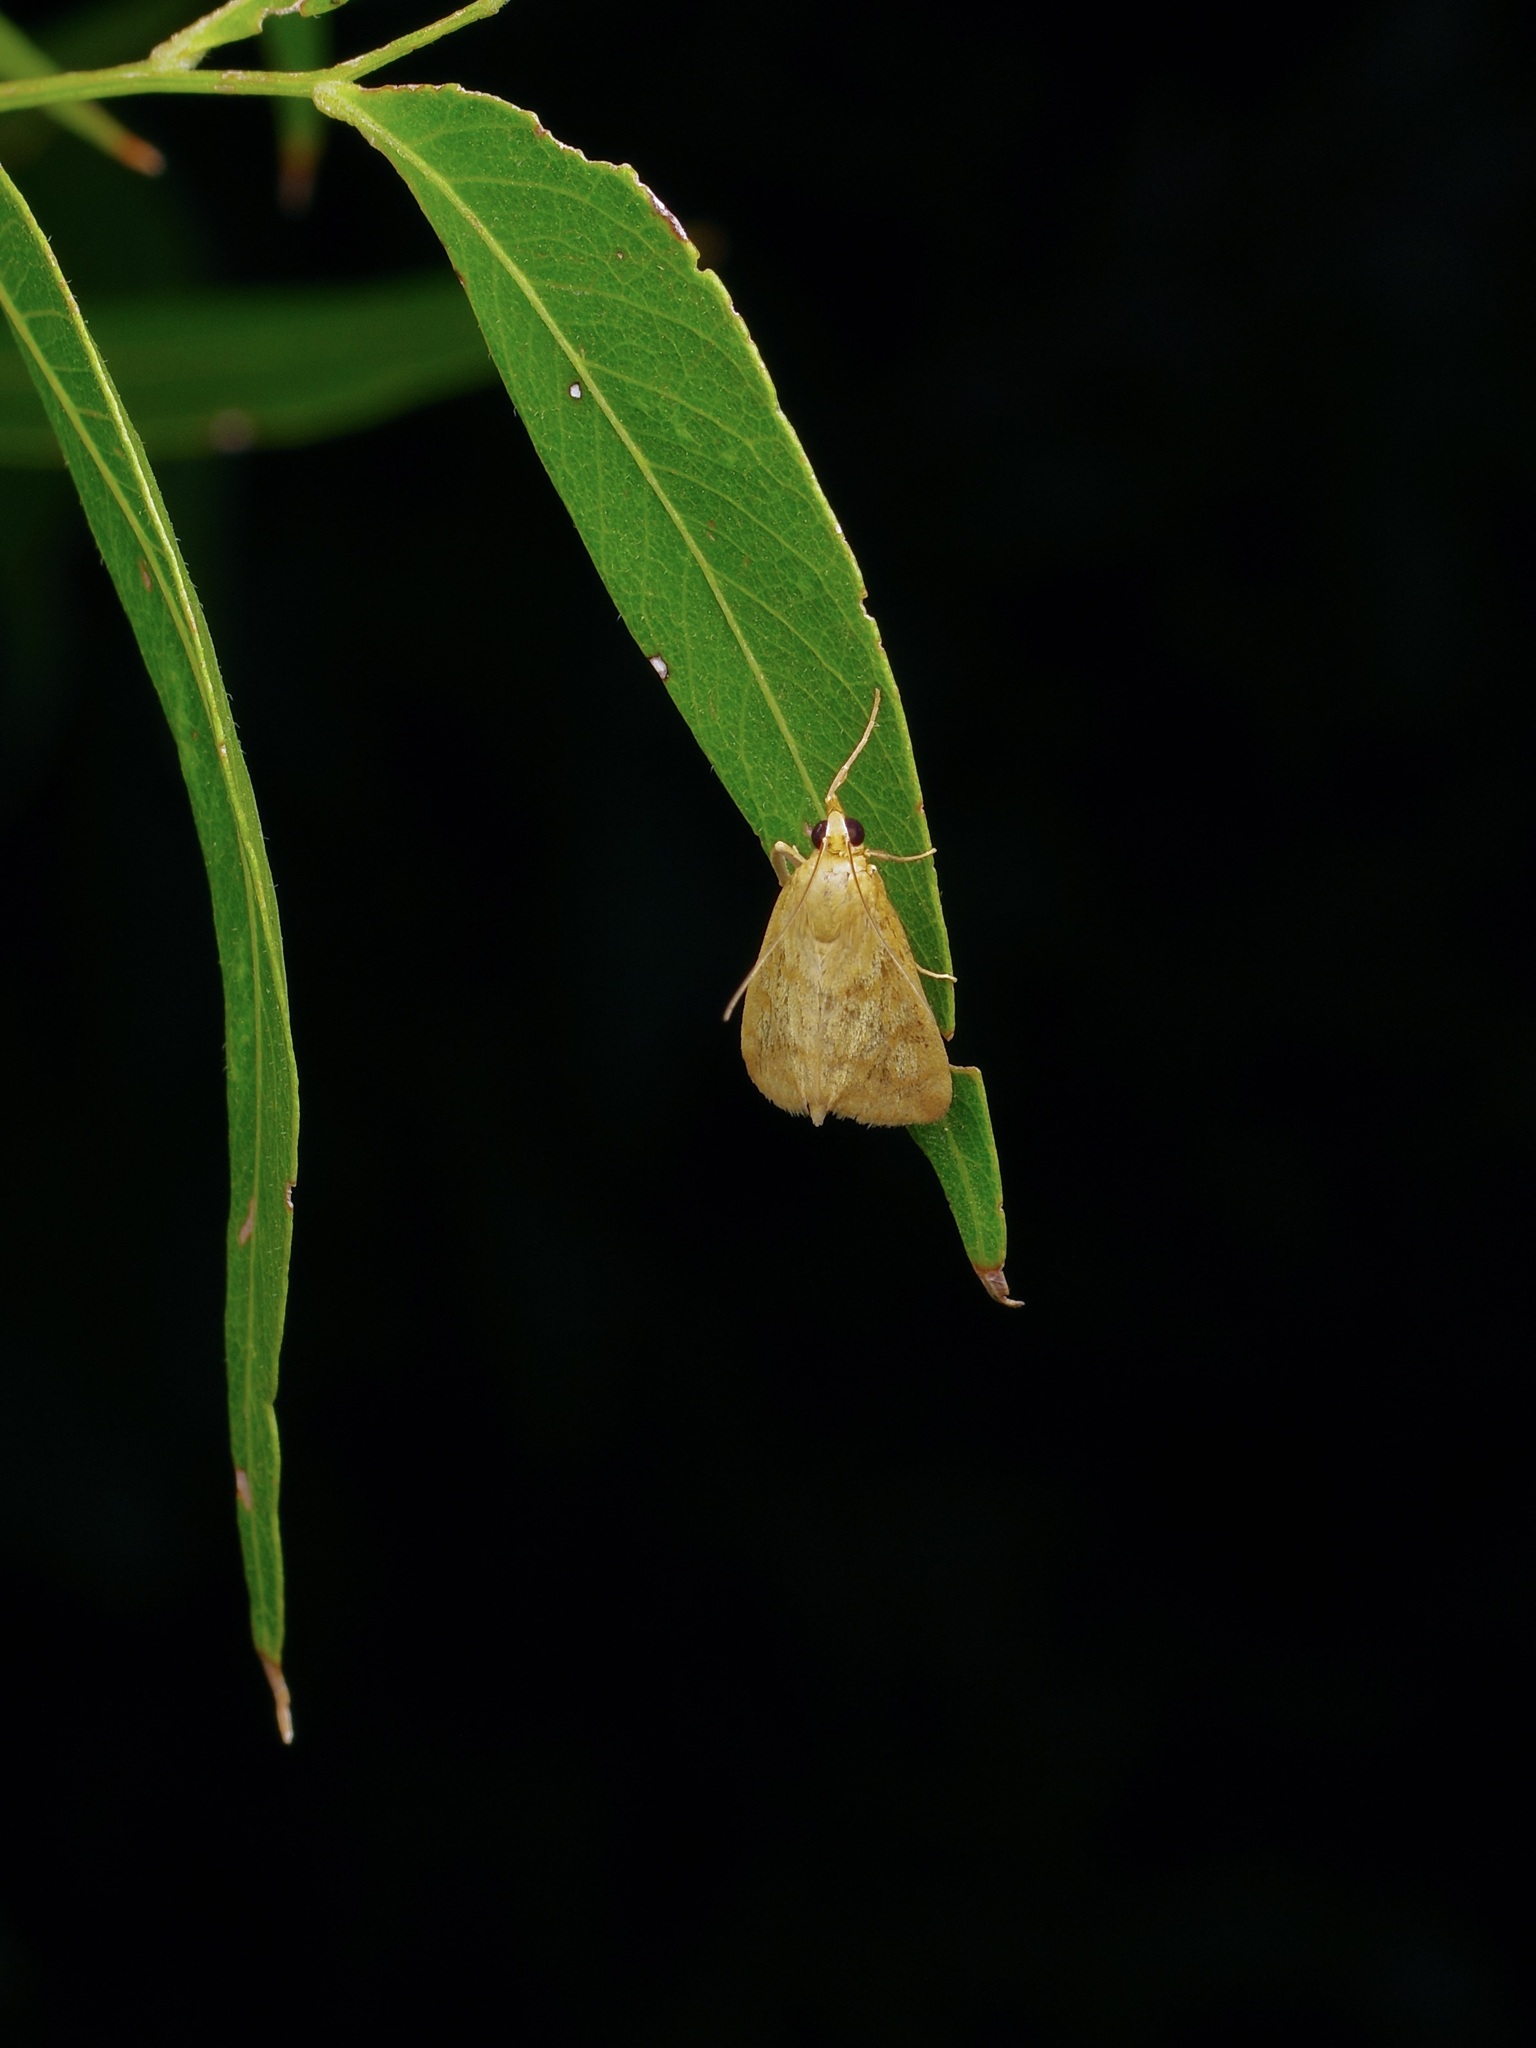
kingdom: Animalia
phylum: Arthropoda
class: Insecta
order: Lepidoptera
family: Crambidae
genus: Achyra
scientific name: Achyra bifidalis
